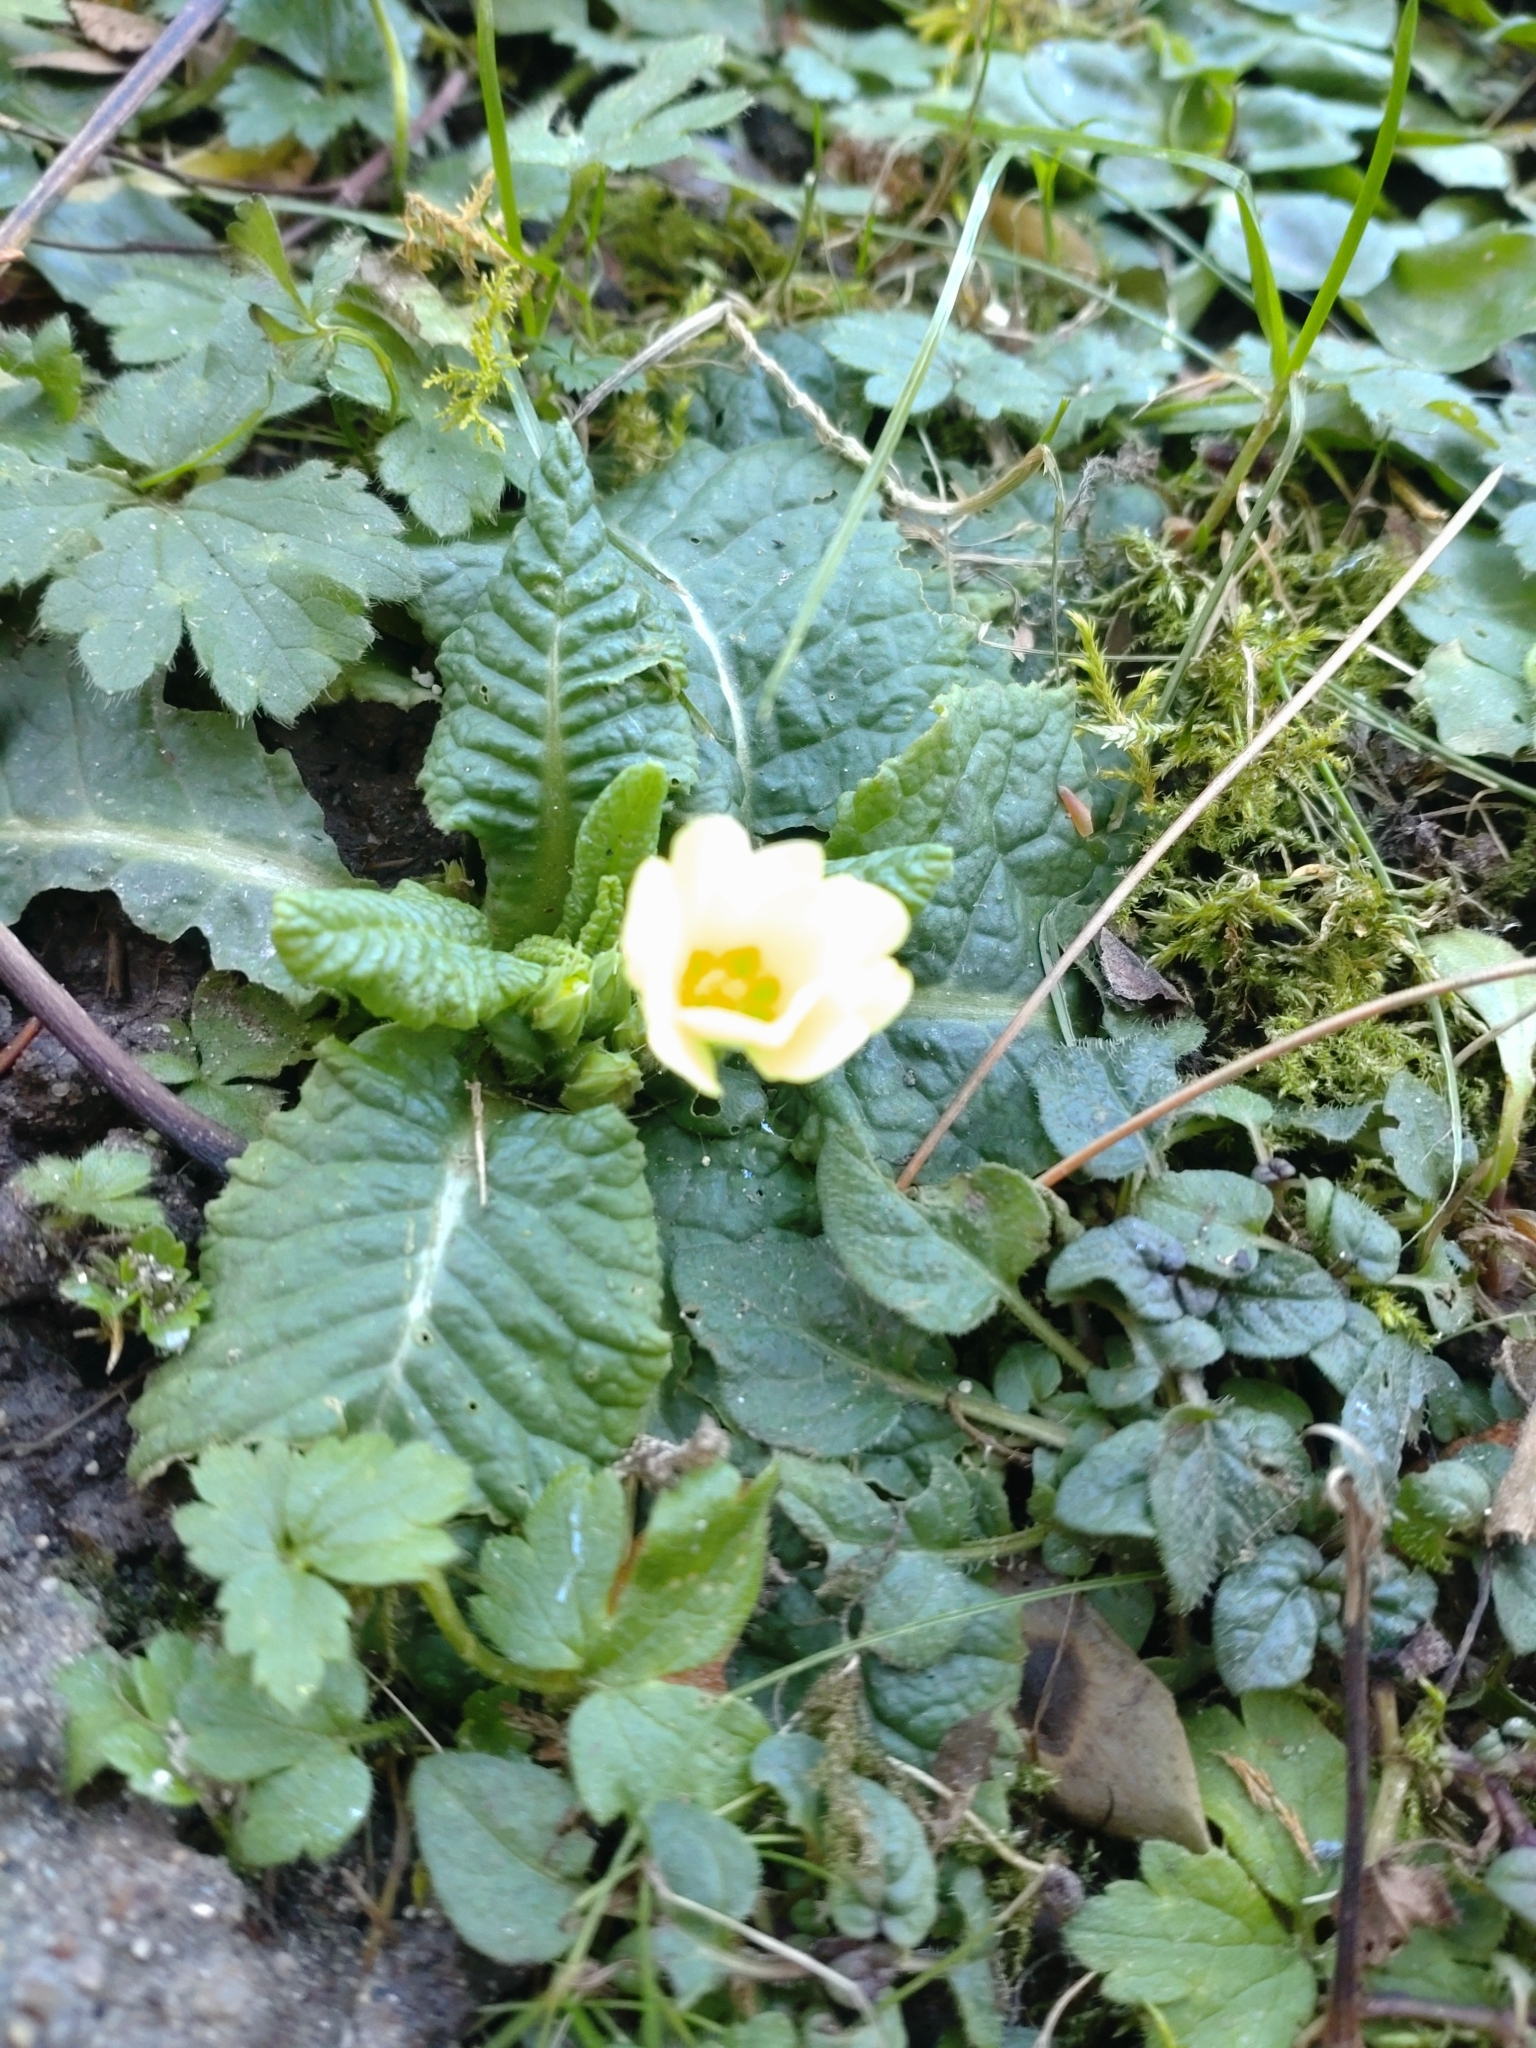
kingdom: Plantae
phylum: Tracheophyta
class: Magnoliopsida
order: Ericales
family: Primulaceae
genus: Primula
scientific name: Primula vulgaris
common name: Primrose
